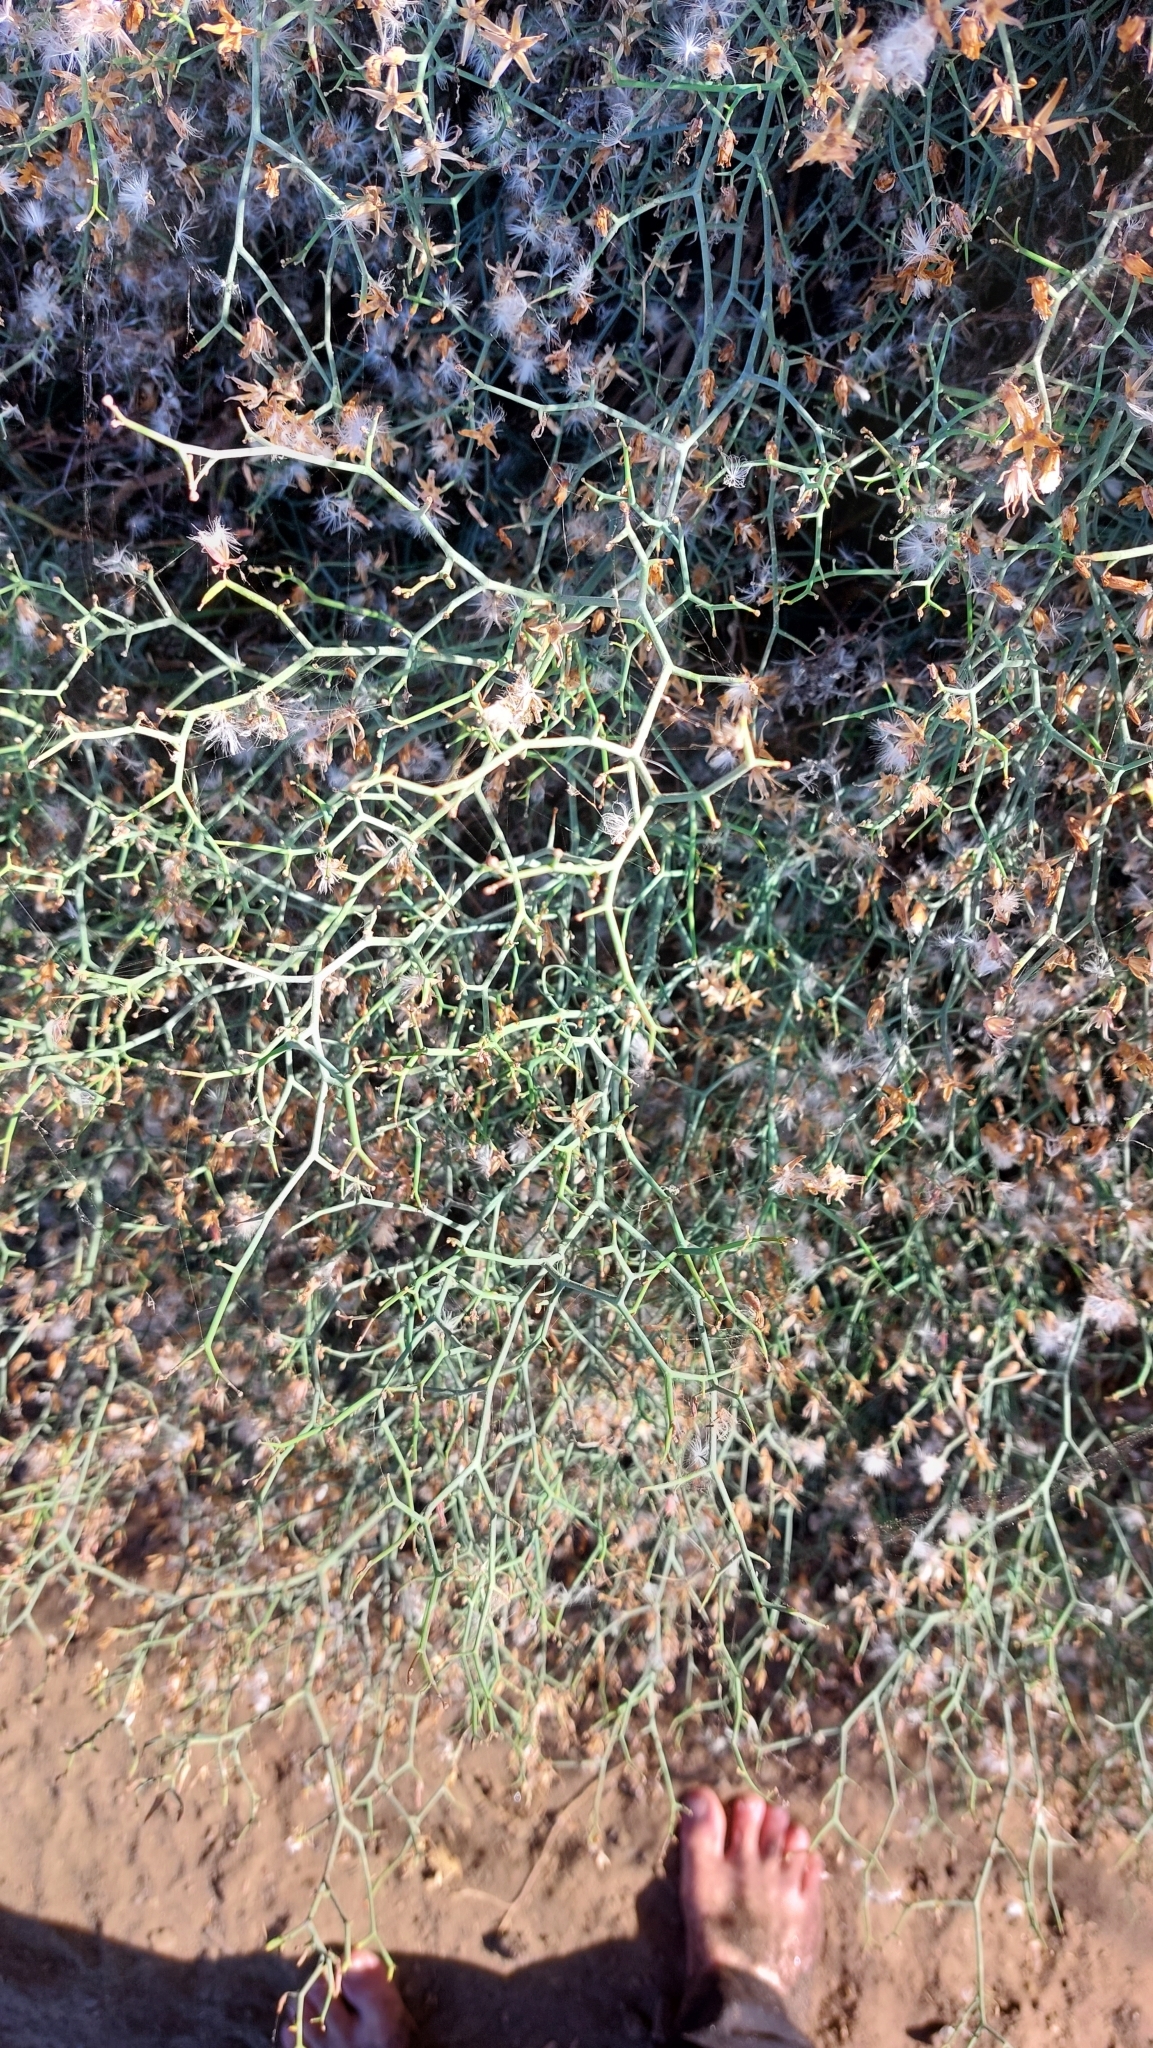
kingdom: Plantae
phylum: Tracheophyta
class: Magnoliopsida
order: Asterales
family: Asteraceae
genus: Launaea
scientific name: Launaea arborescens
